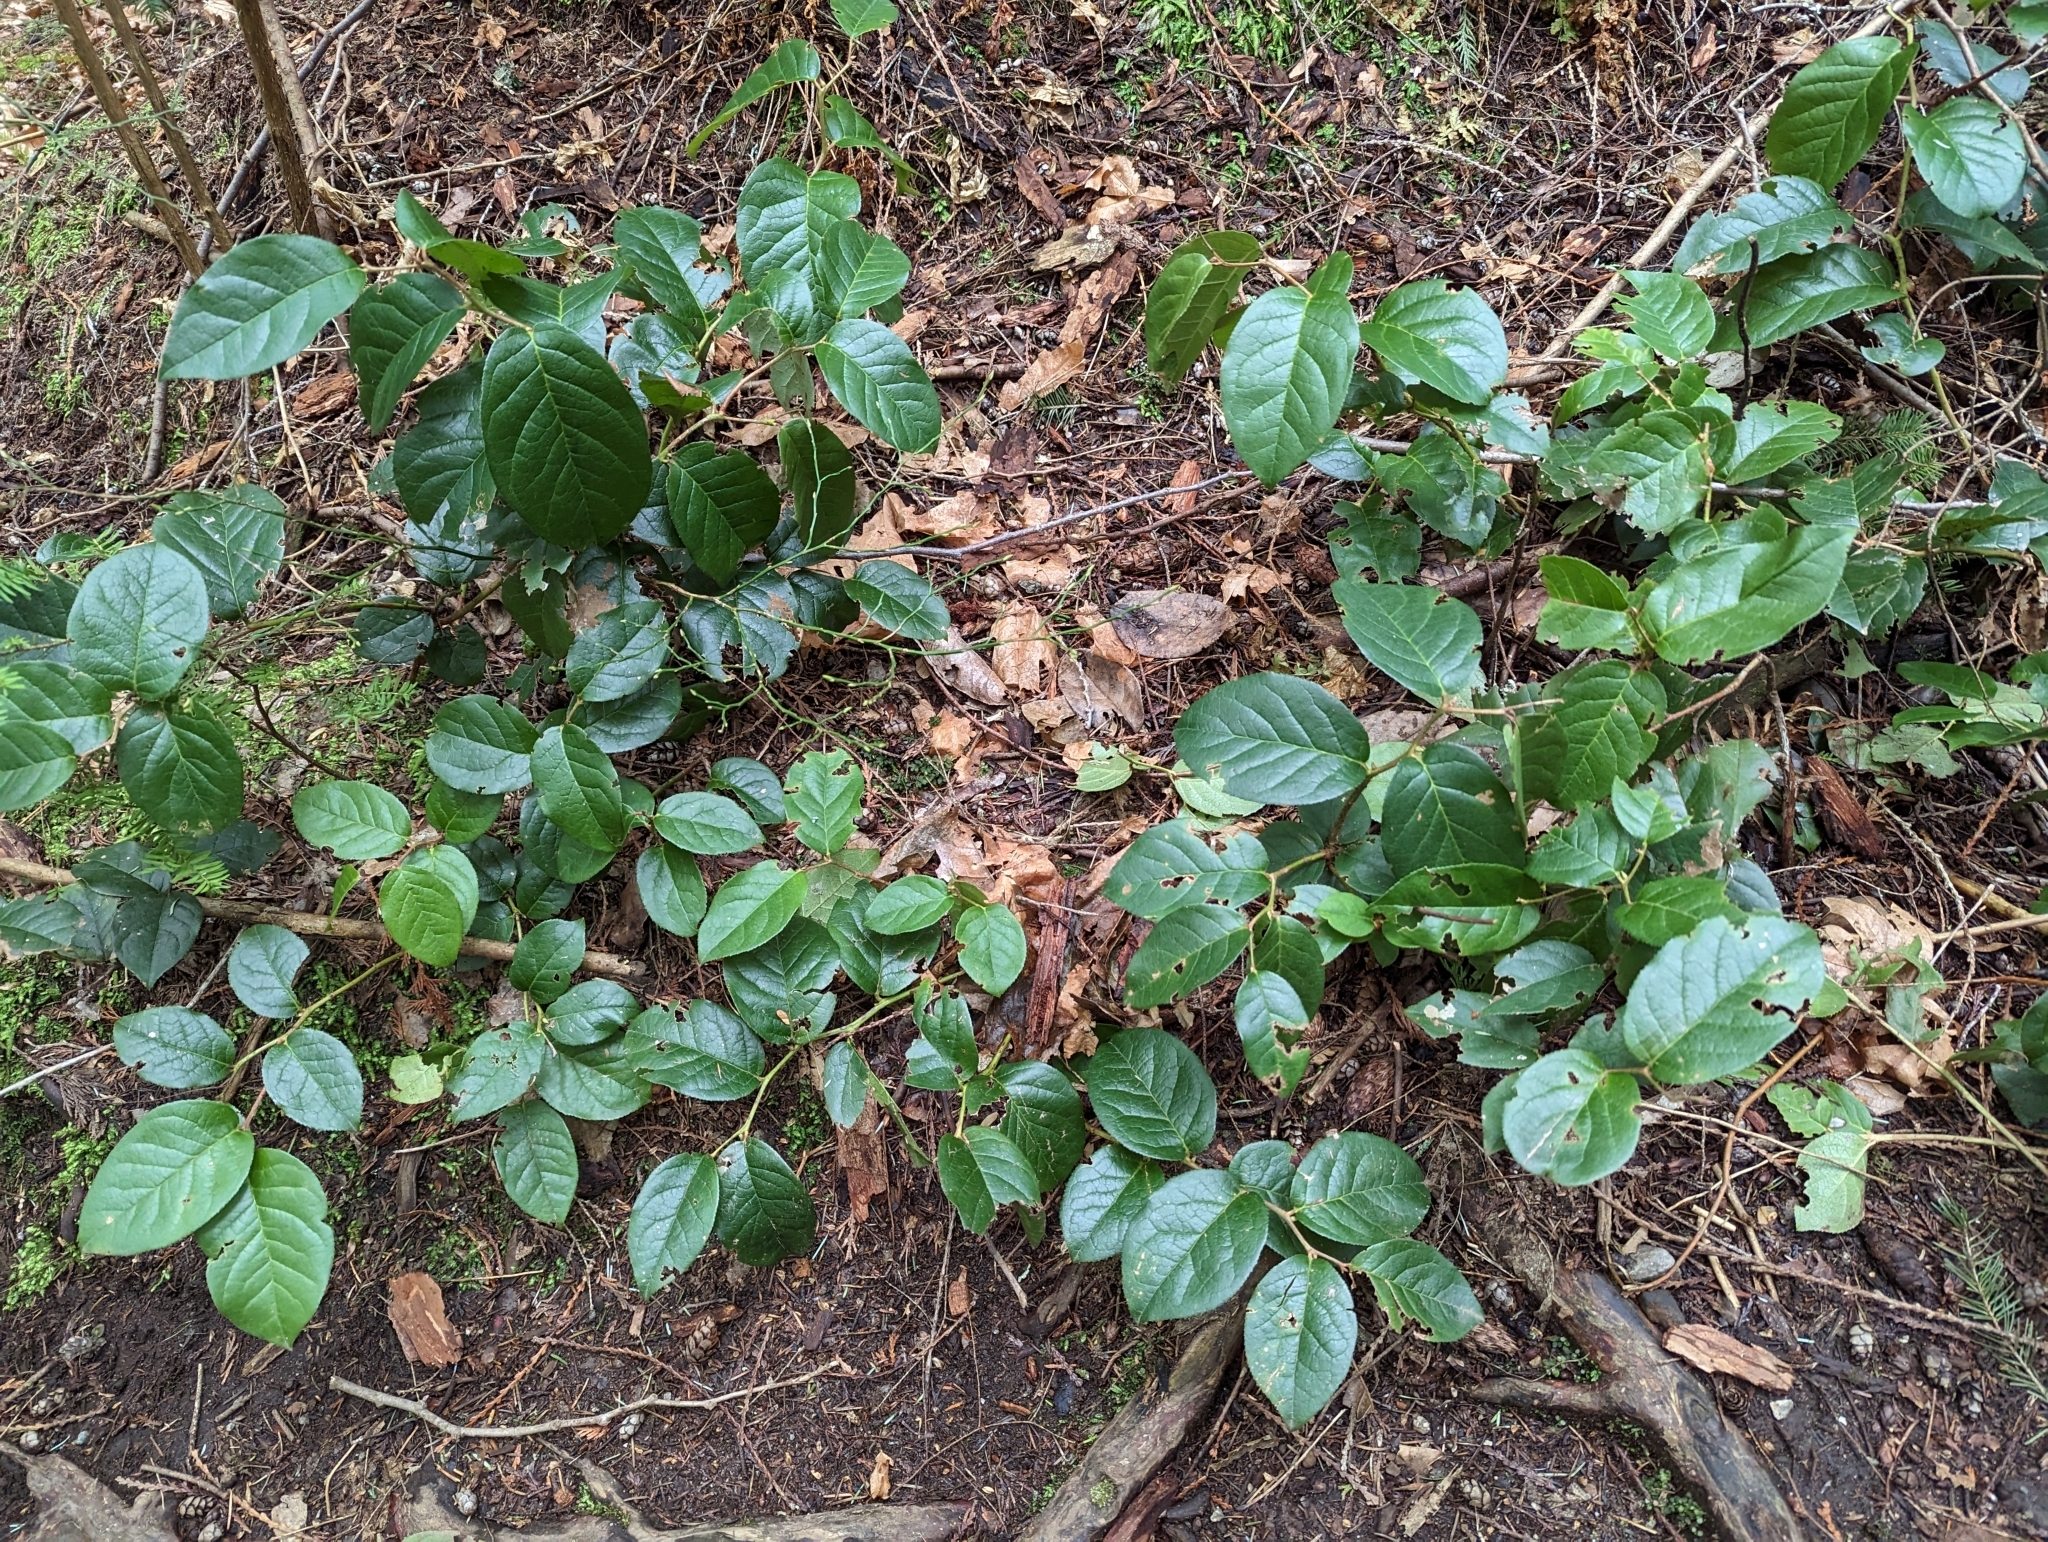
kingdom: Plantae
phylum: Tracheophyta
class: Magnoliopsida
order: Ericales
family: Ericaceae
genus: Gaultheria
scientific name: Gaultheria shallon
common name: Shallon
